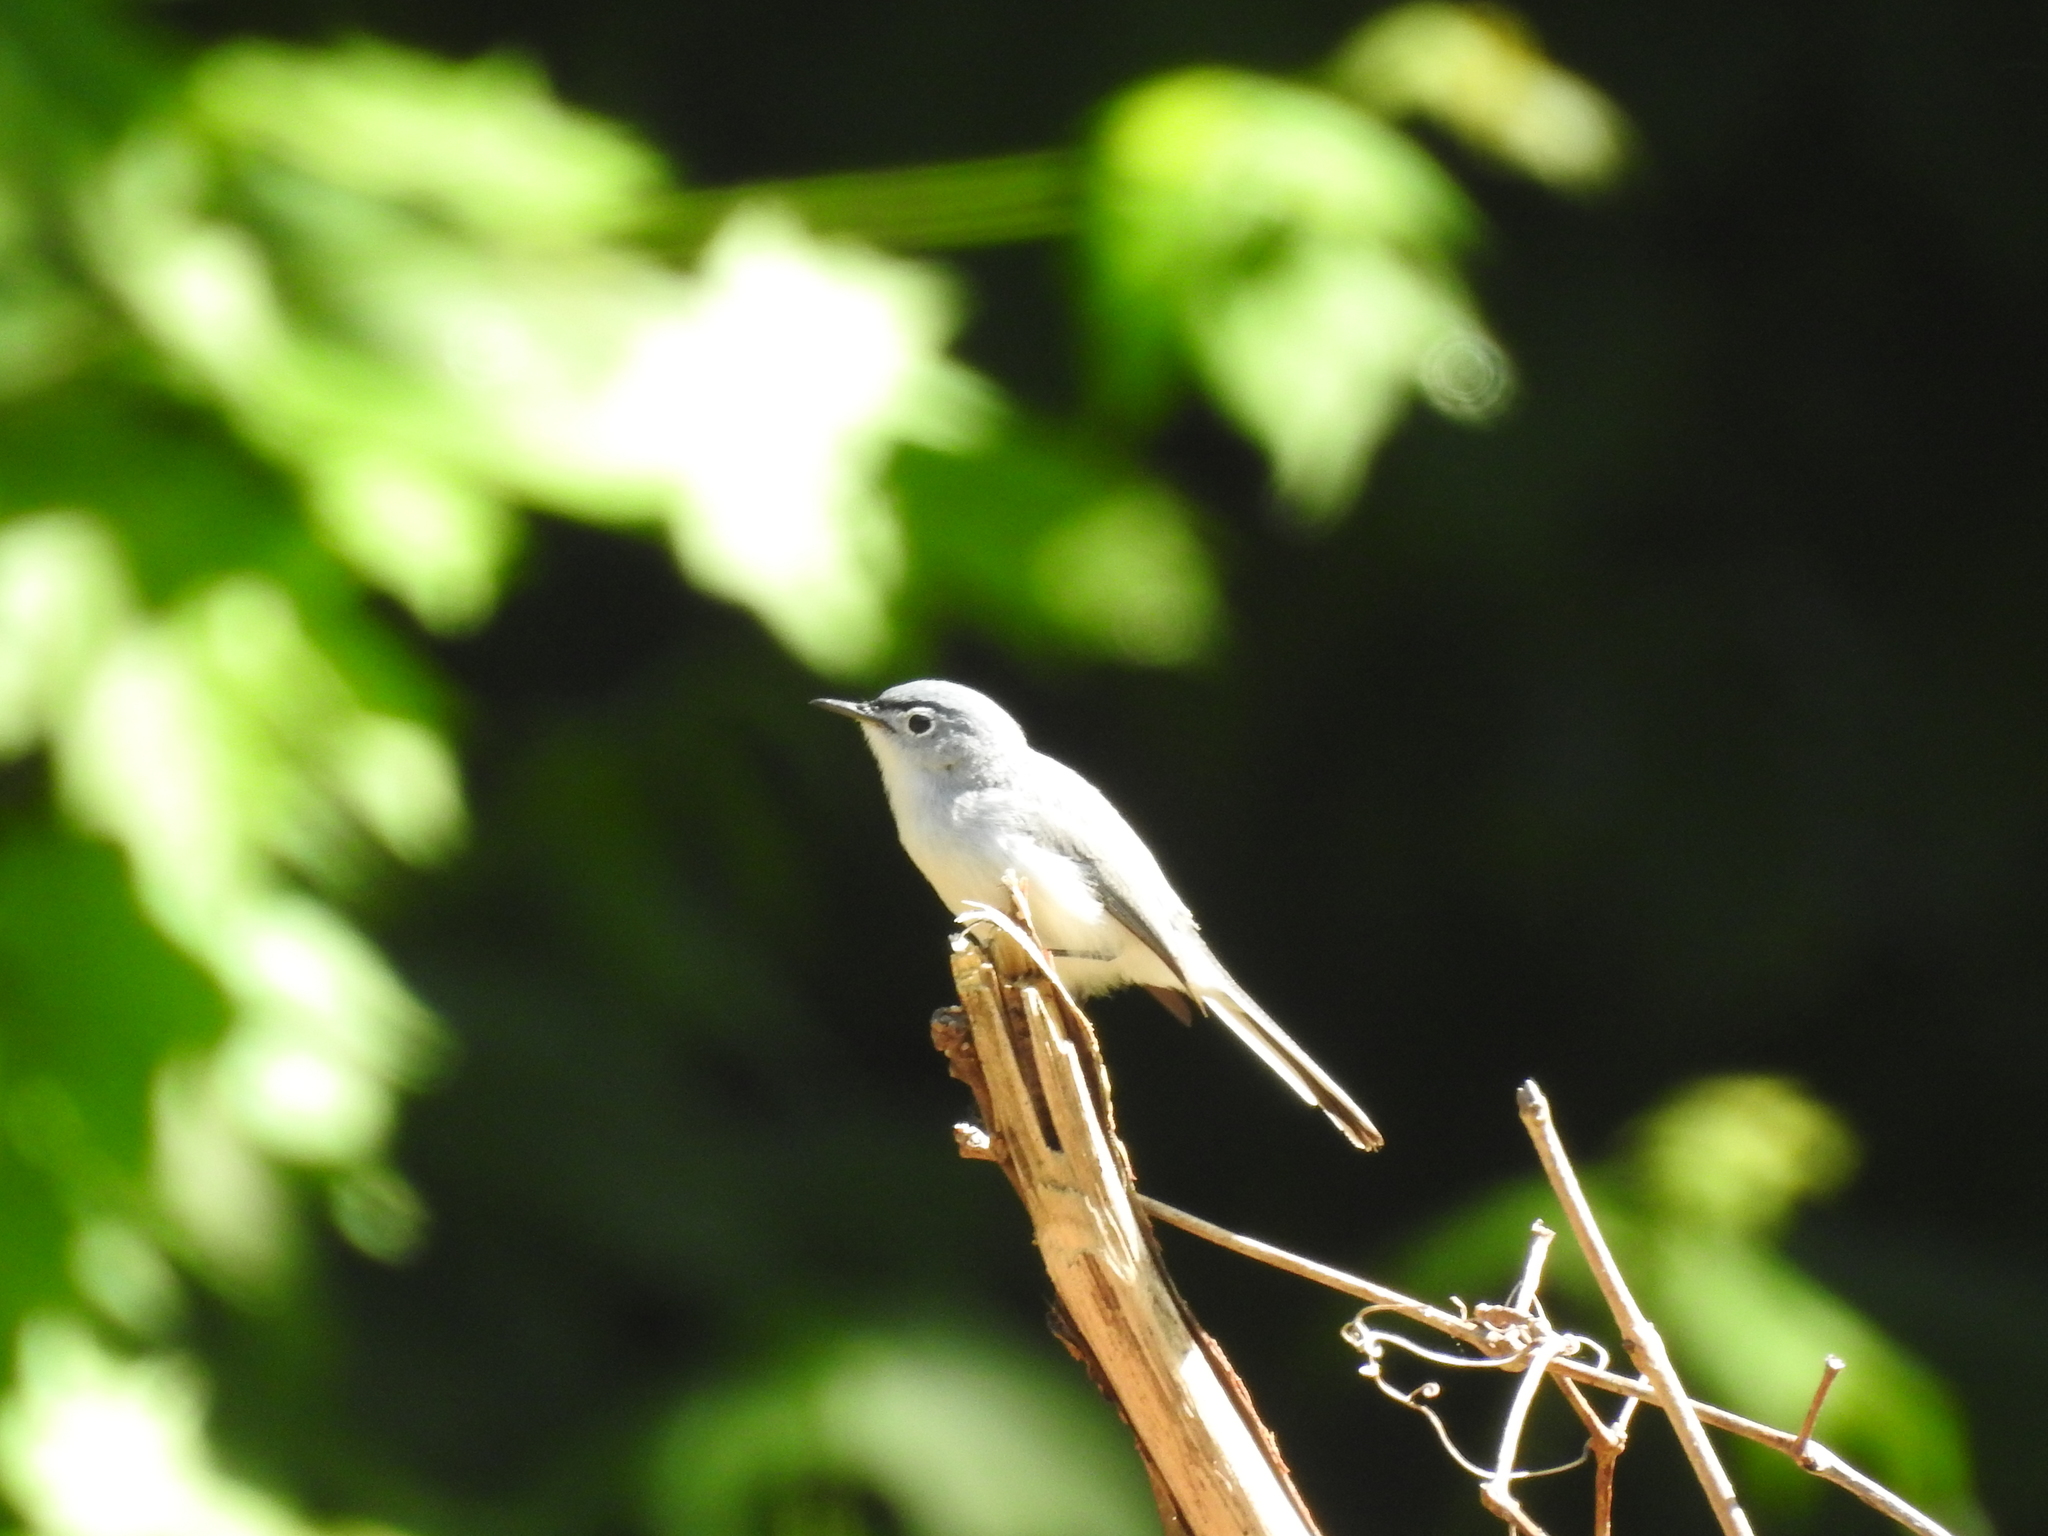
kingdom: Animalia
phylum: Chordata
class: Aves
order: Passeriformes
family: Polioptilidae
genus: Polioptila
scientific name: Polioptila caerulea
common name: Blue-gray gnatcatcher
